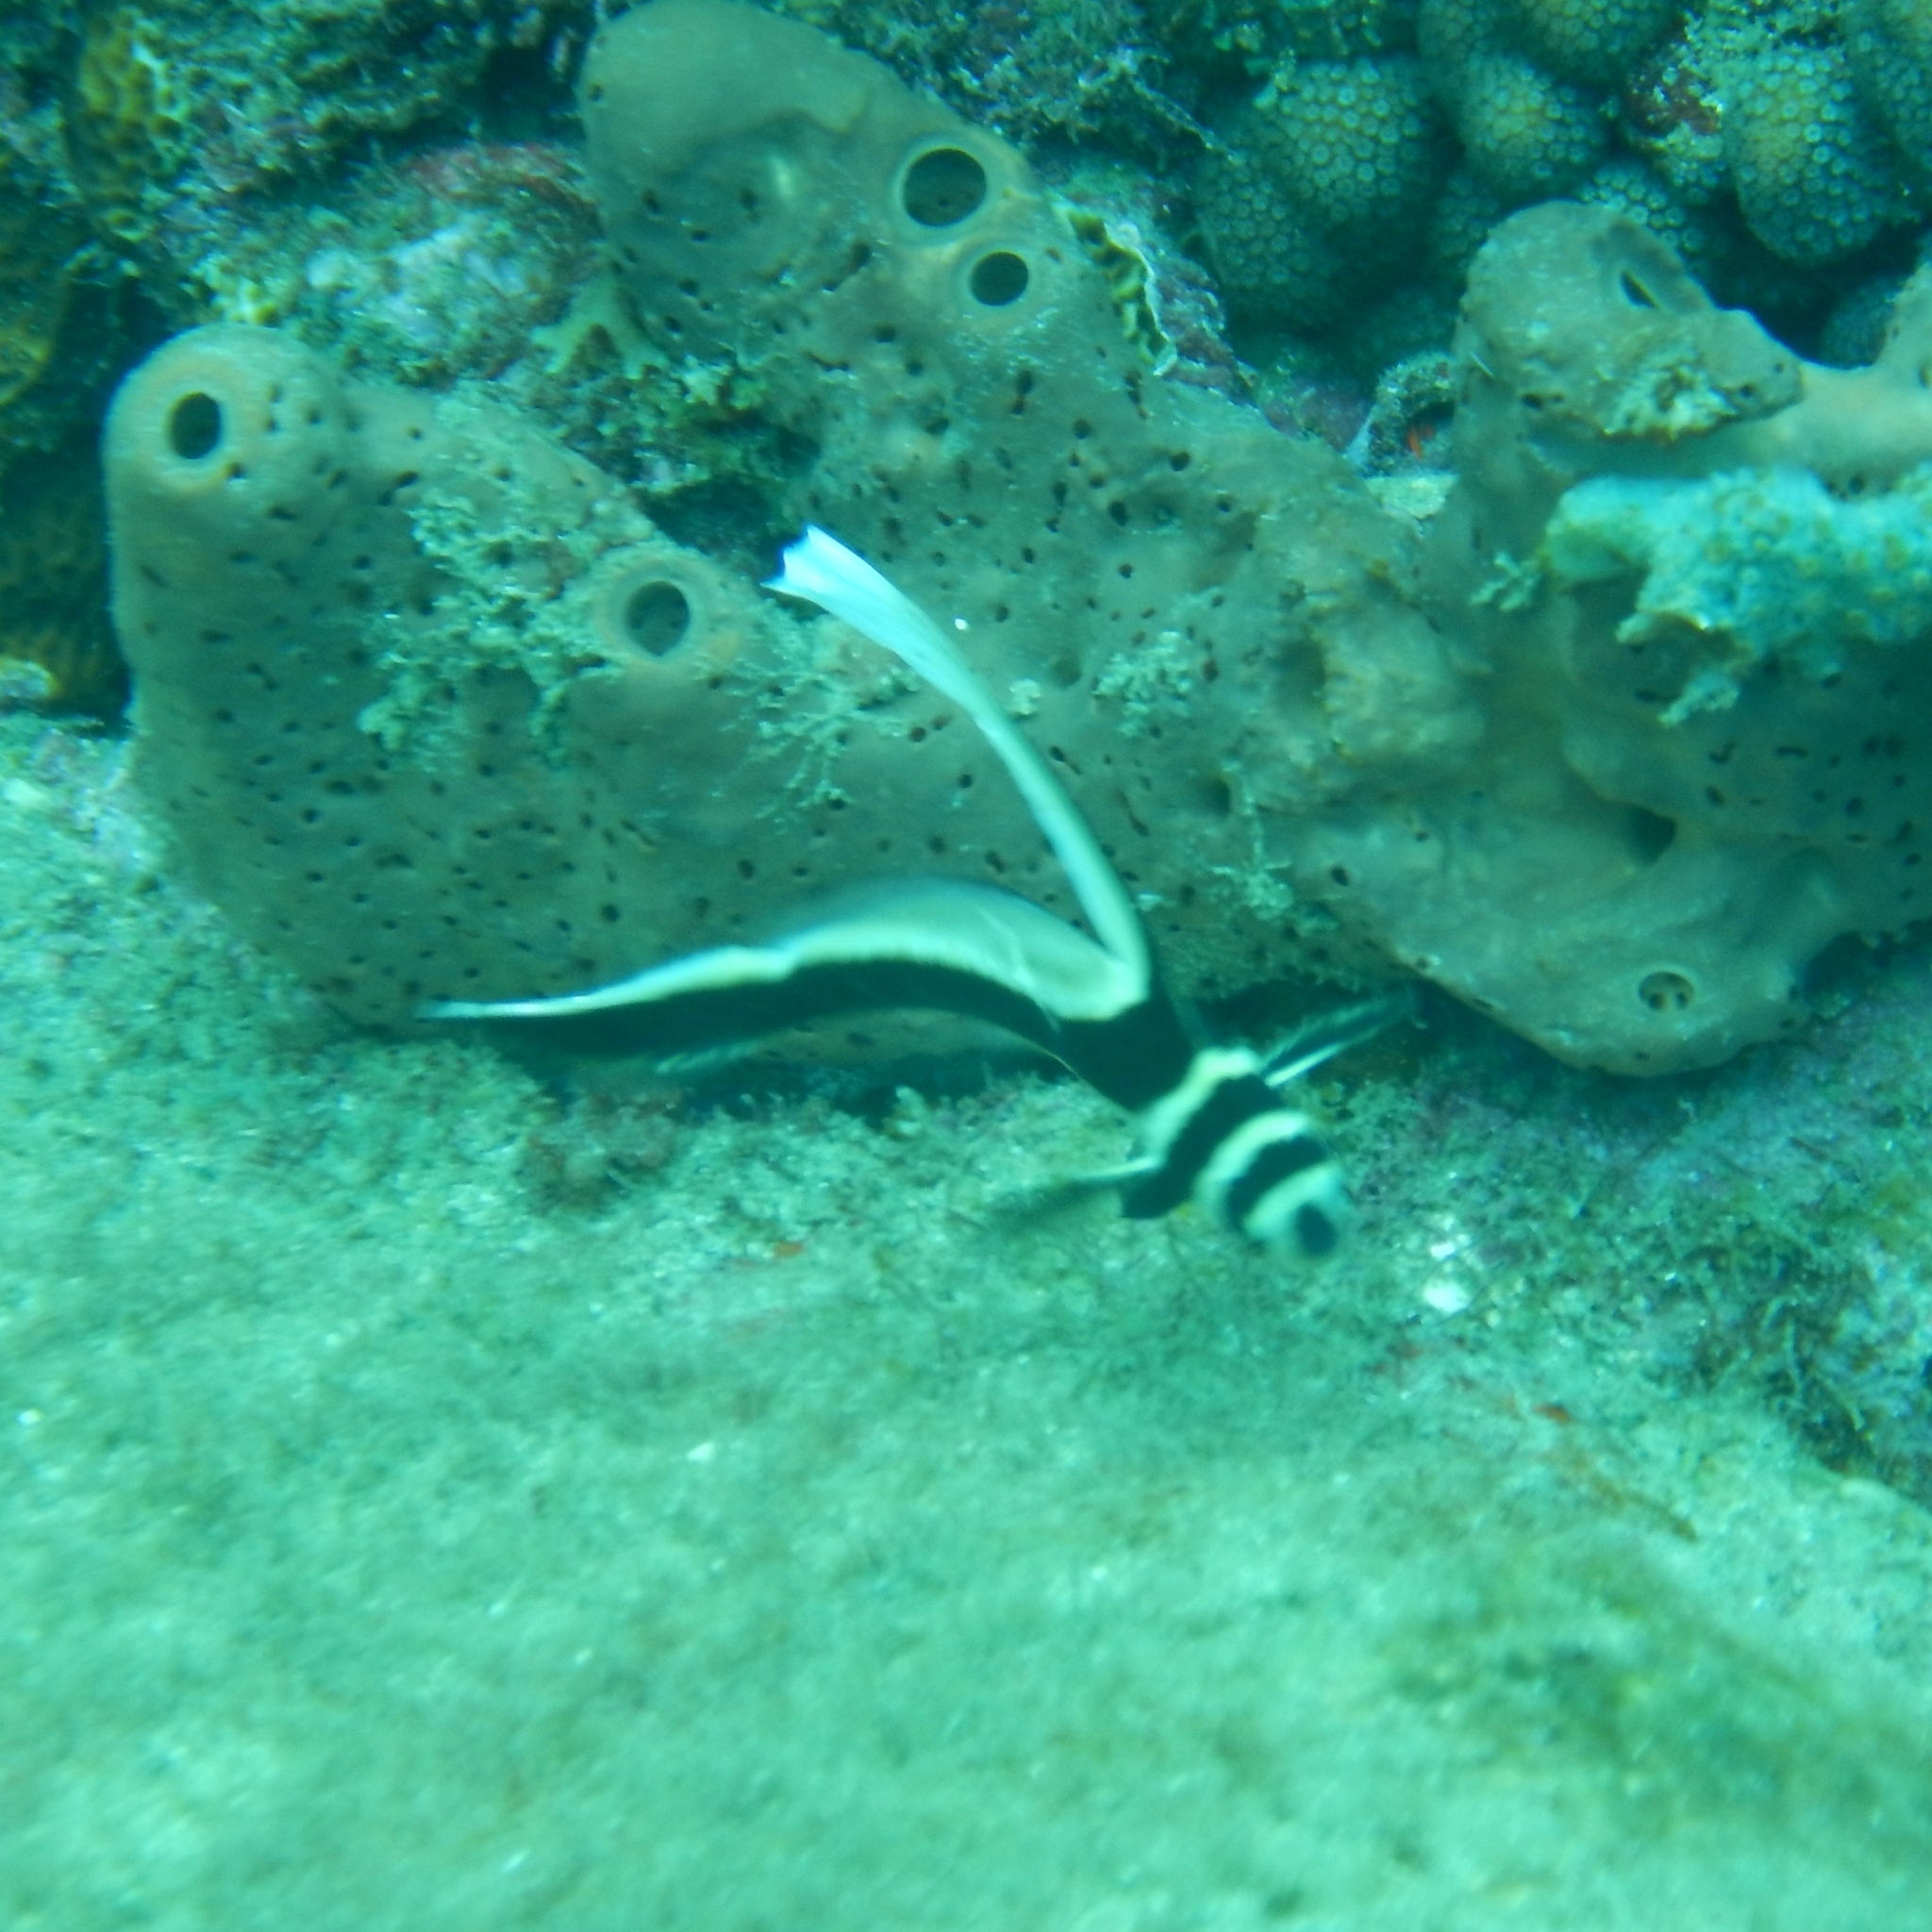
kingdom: Animalia
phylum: Chordata
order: Perciformes
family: Sciaenidae
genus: Equetus
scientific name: Equetus punctatus
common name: Spotted drum
